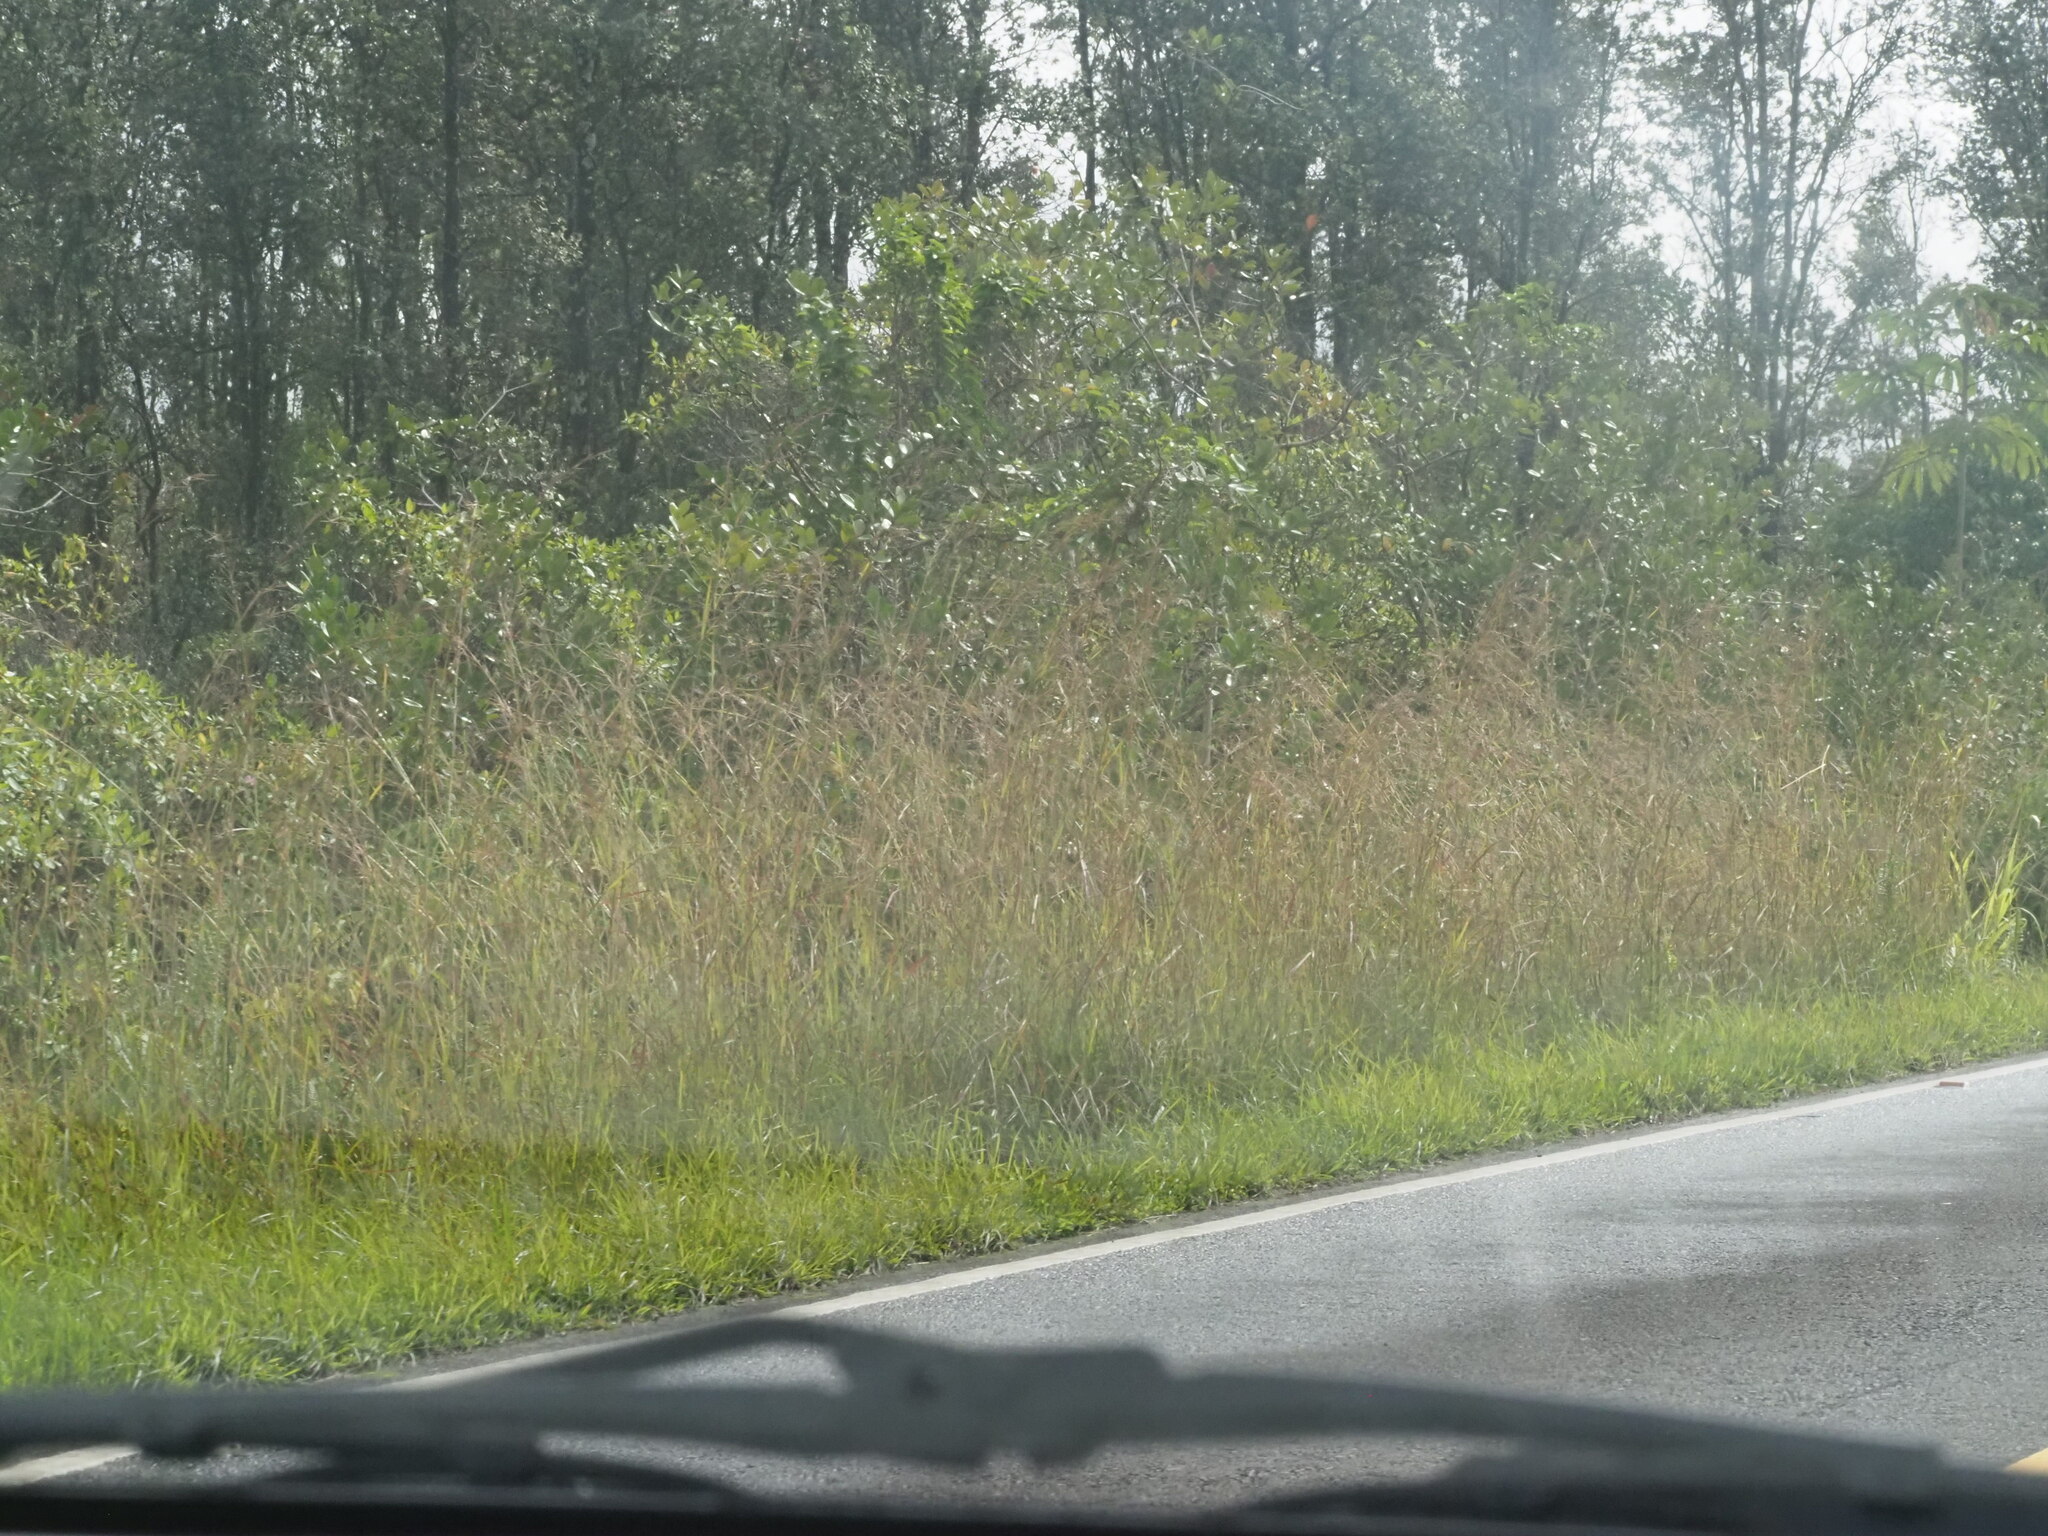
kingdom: Plantae
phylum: Tracheophyta
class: Liliopsida
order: Poales
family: Poaceae
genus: Hyparrhenia
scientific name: Hyparrhenia rufa
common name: Jaraguagrass
